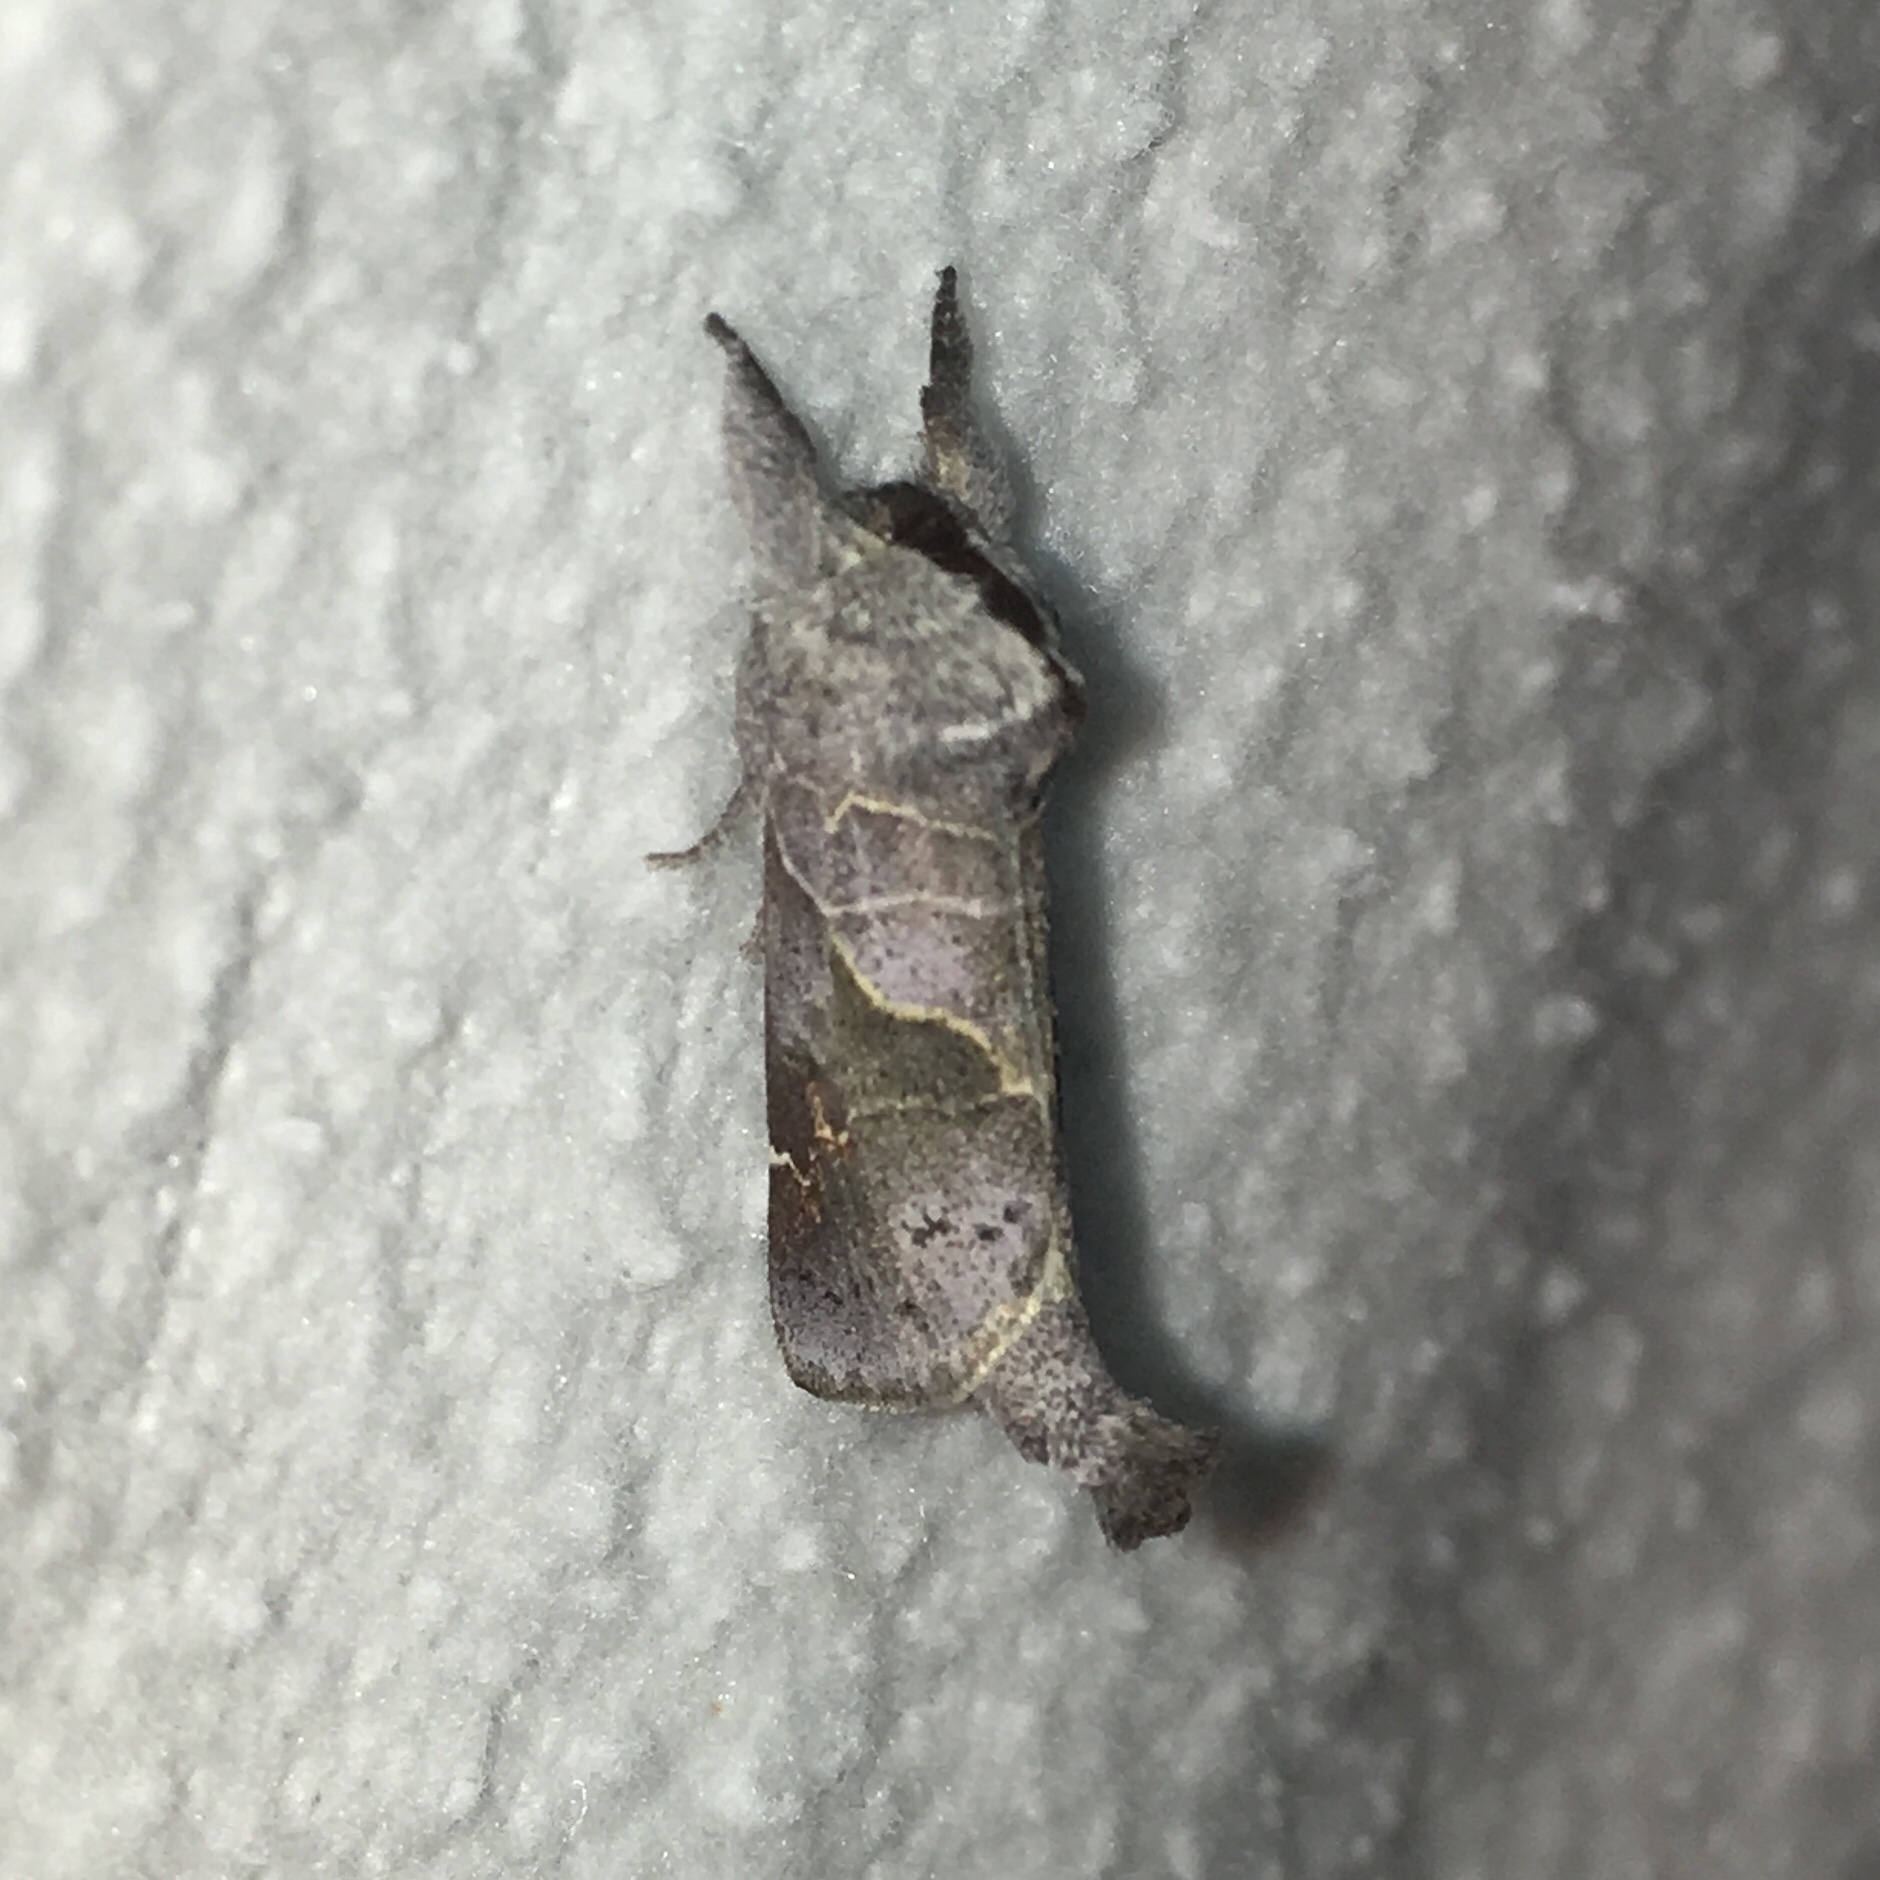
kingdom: Animalia
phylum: Arthropoda
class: Insecta
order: Lepidoptera
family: Notodontidae
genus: Clostera
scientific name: Clostera apicalis
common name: Apical prominent
